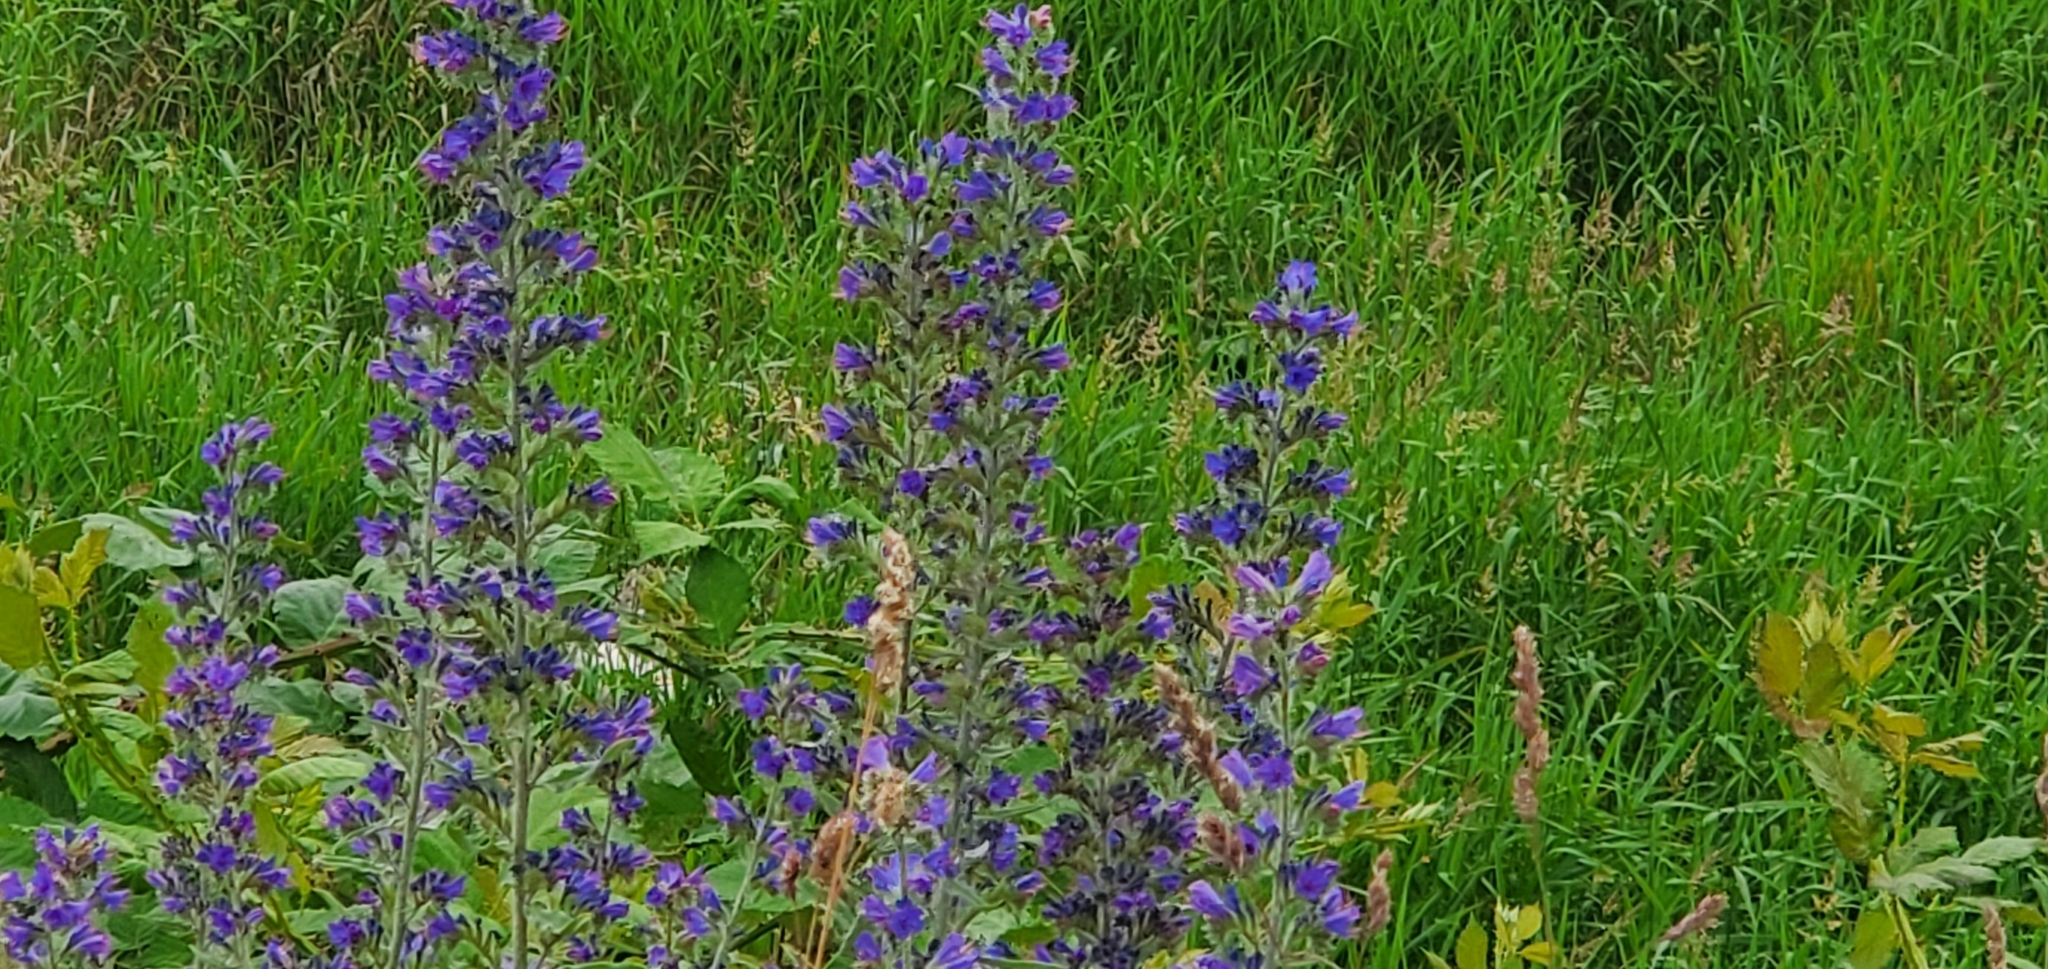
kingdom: Plantae
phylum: Tracheophyta
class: Magnoliopsida
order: Boraginales
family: Boraginaceae
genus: Echium
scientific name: Echium vulgare
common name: Common viper's bugloss
